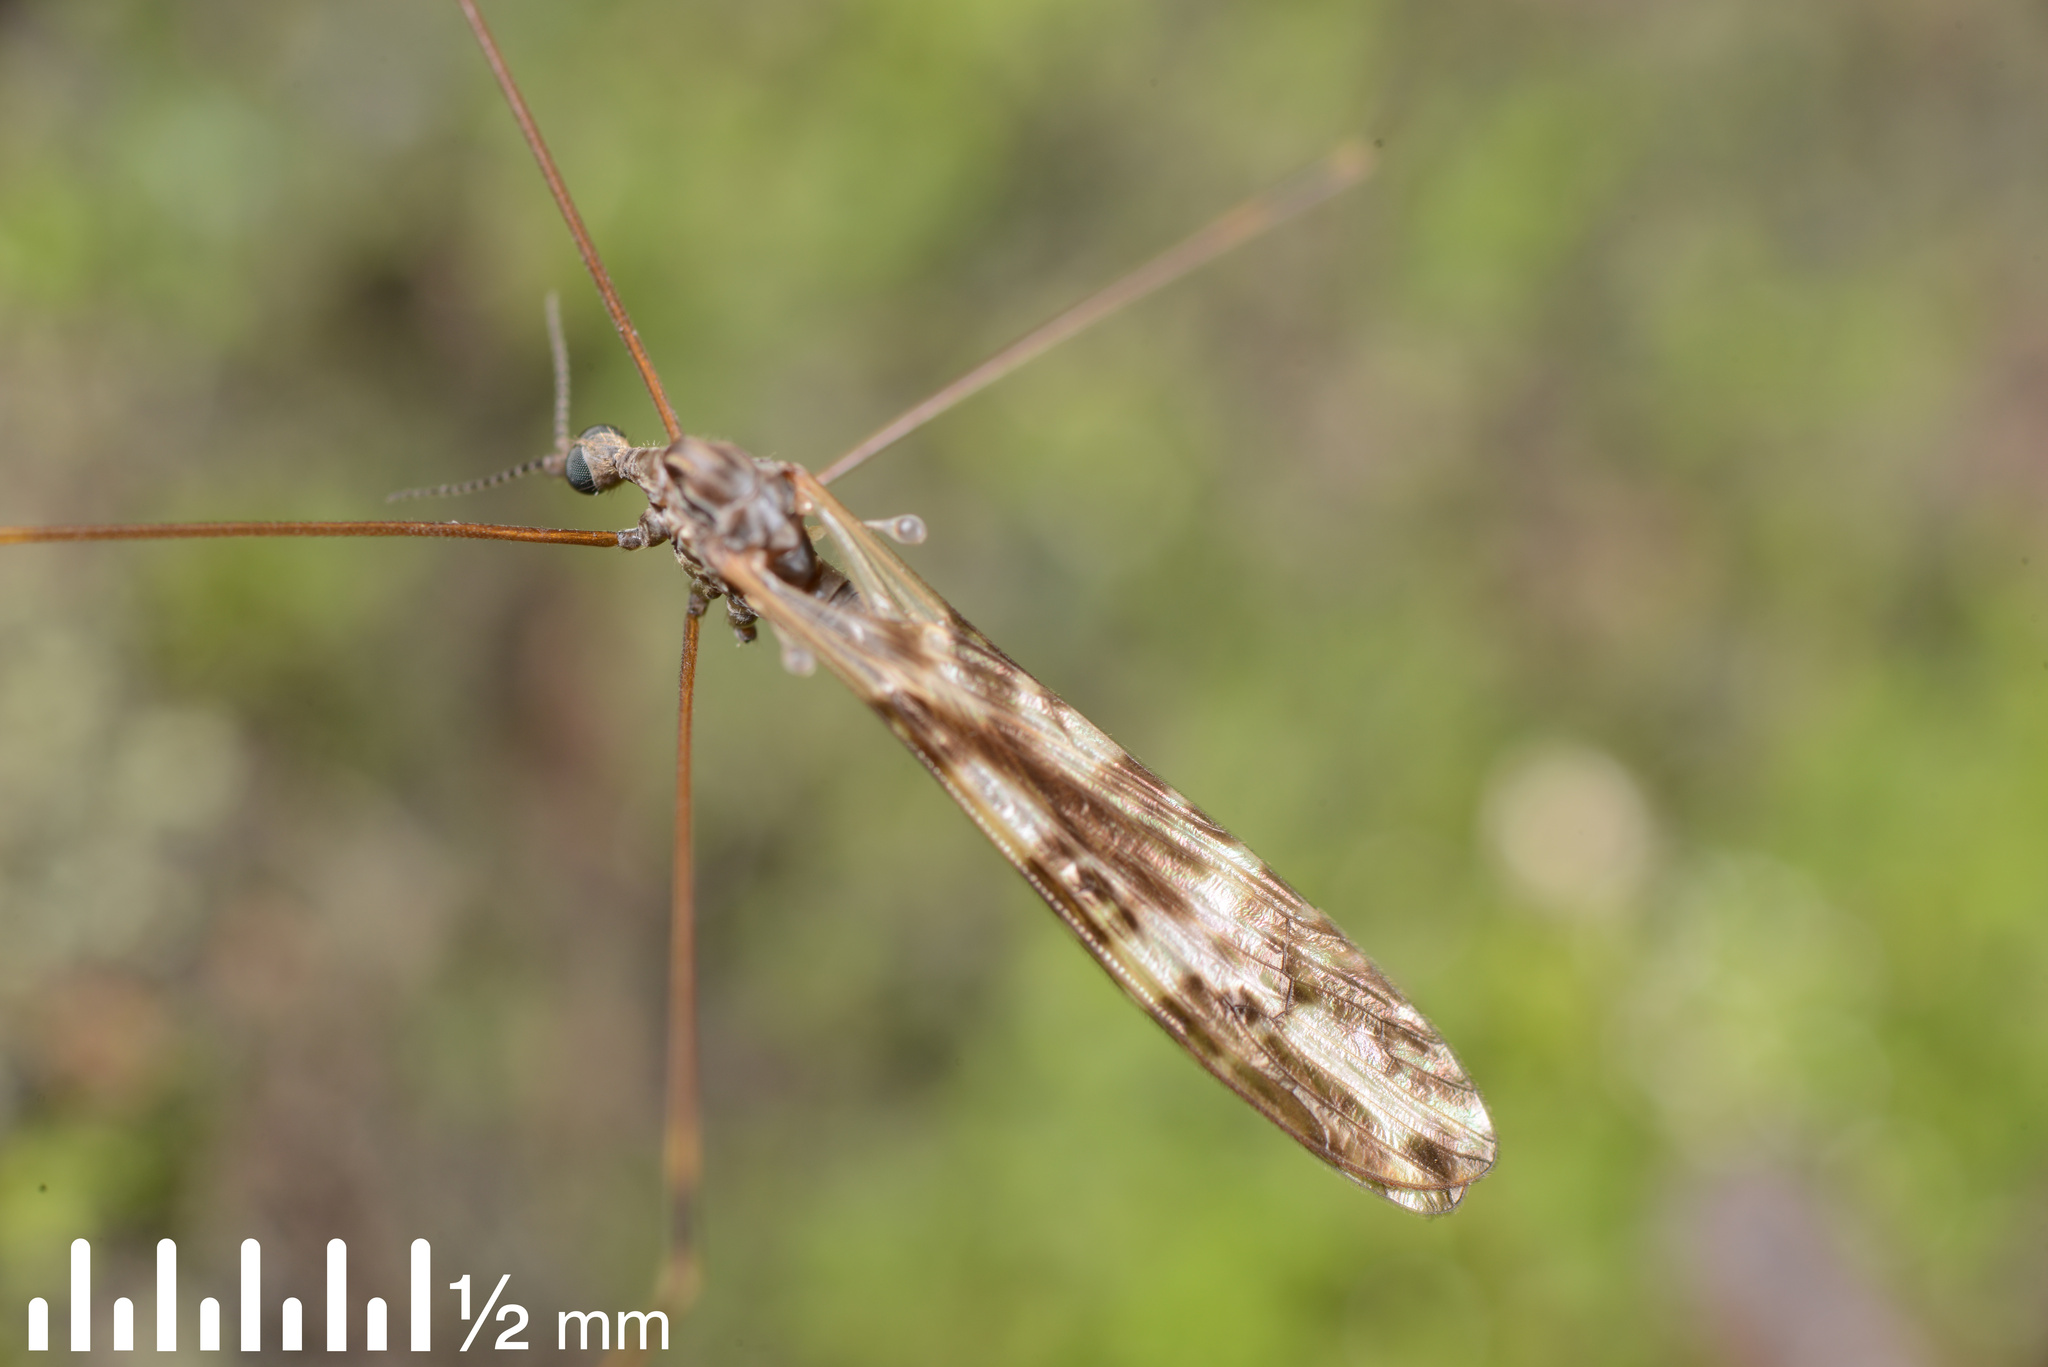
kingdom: Animalia
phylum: Arthropoda
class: Insecta
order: Diptera
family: Limoniidae
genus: Discobola
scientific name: Discobola dohrni
